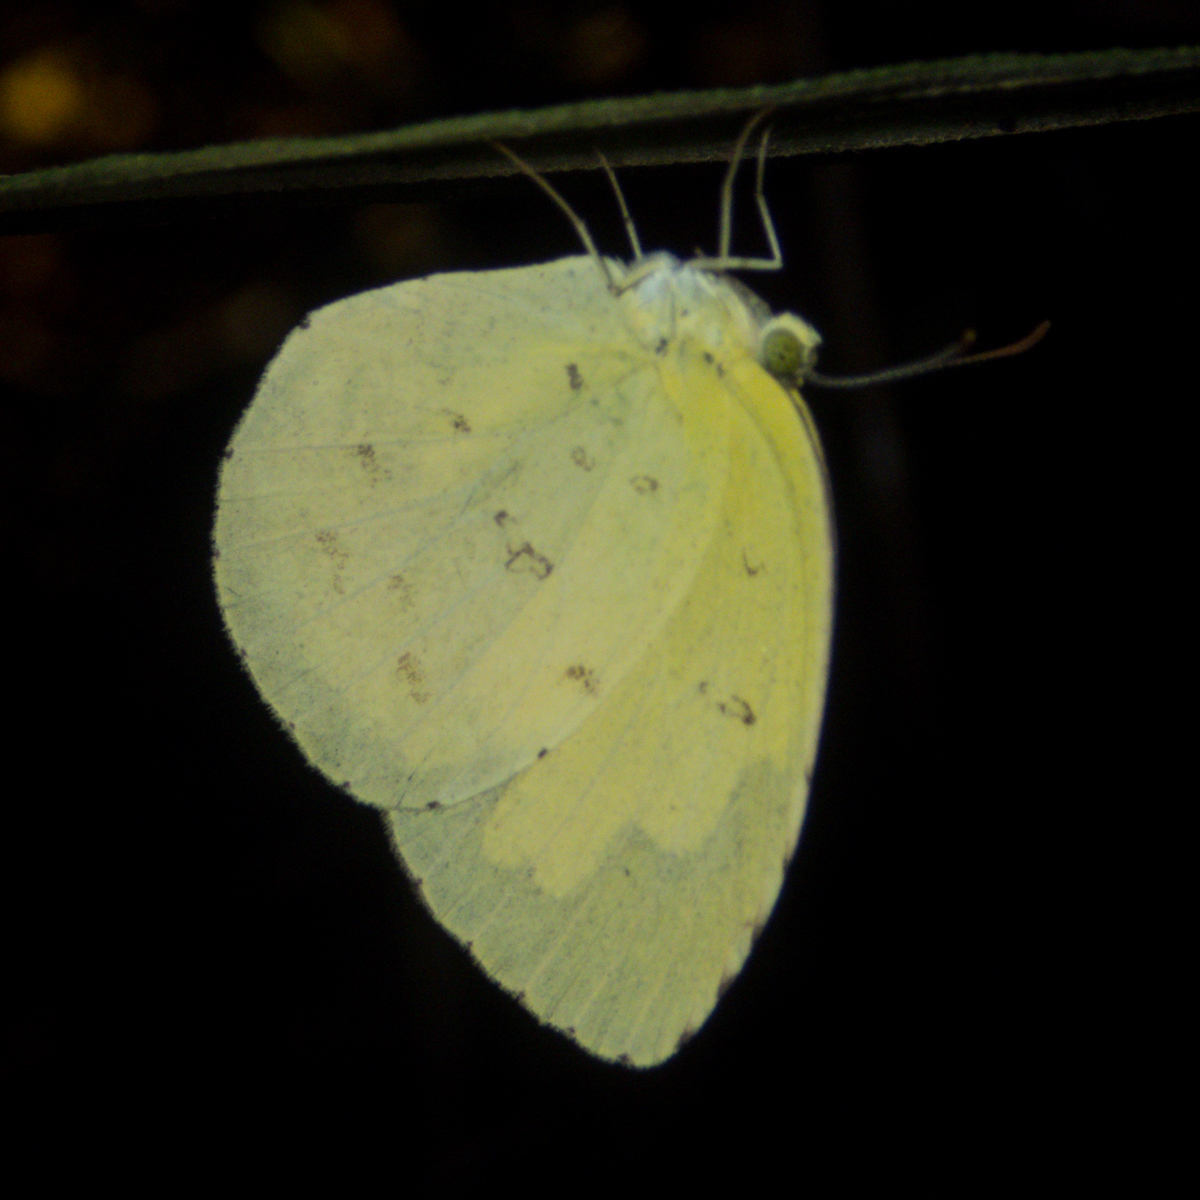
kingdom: Animalia
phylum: Arthropoda
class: Insecta
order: Lepidoptera
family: Pieridae
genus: Eurema
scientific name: Eurema hecabe
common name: Pale grass yellow
